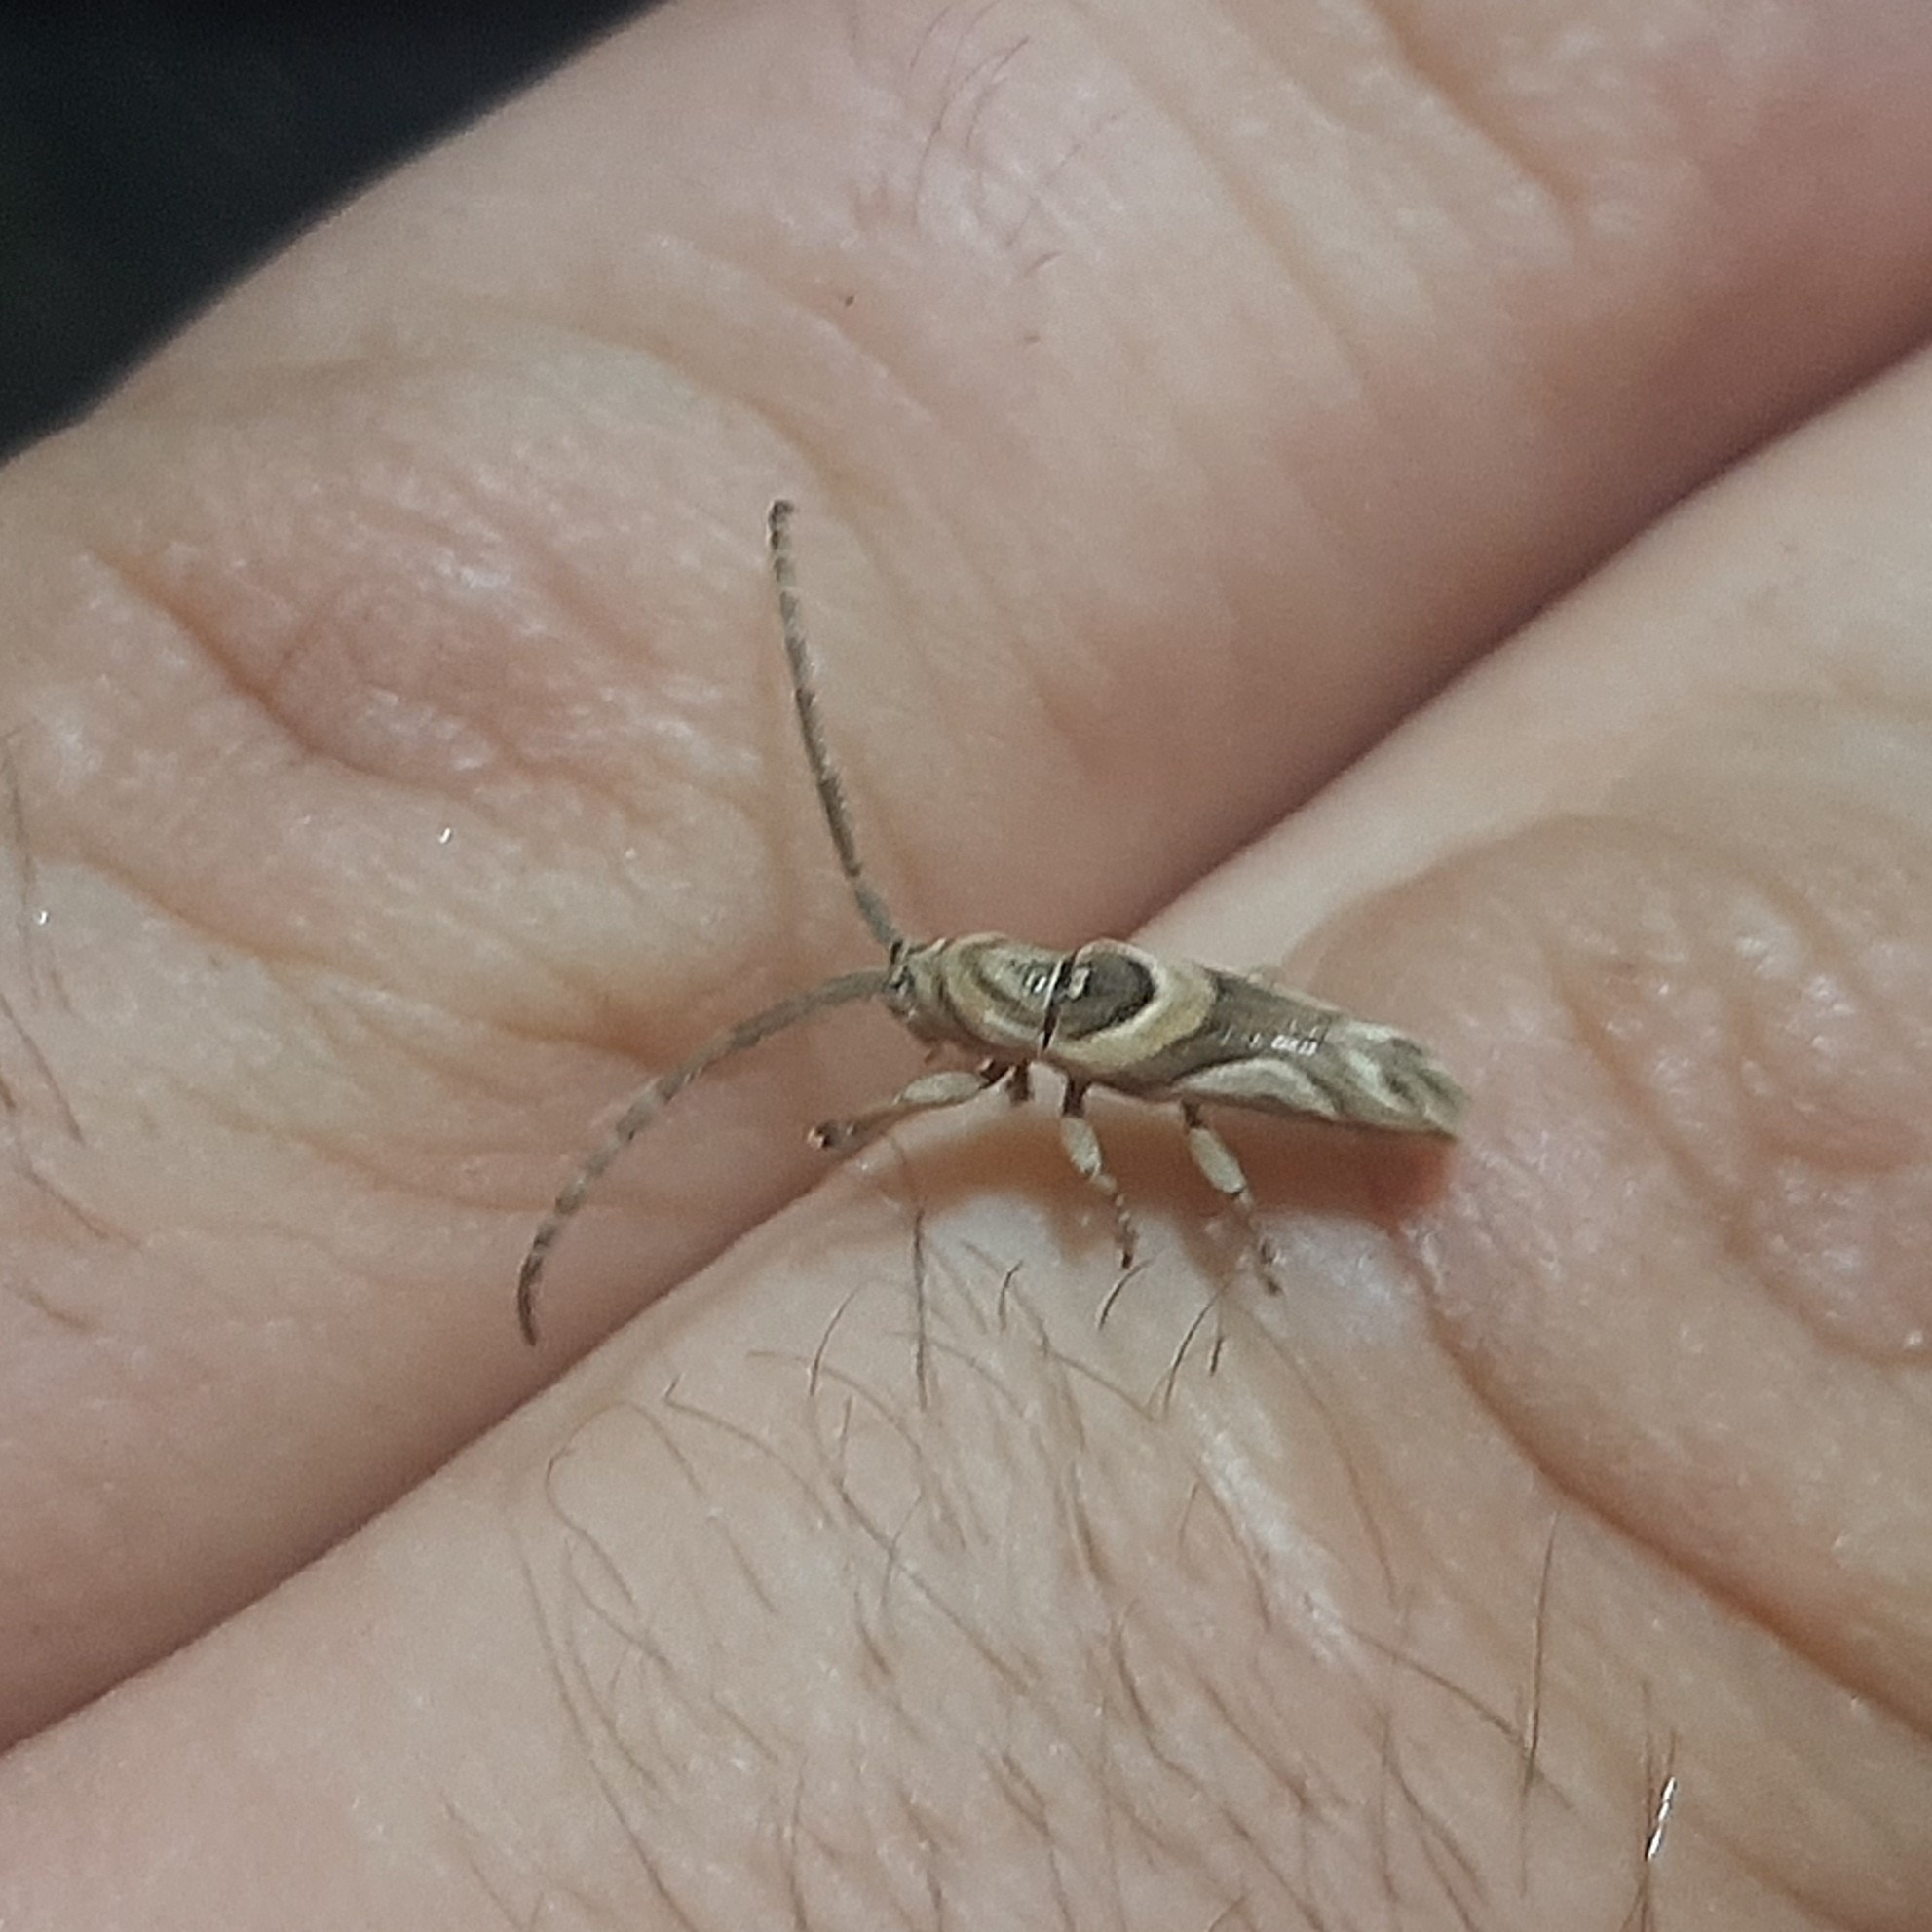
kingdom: Animalia
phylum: Arthropoda
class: Insecta
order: Coleoptera
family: Cerambycidae
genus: Bebelis
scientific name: Bebelis acuta
